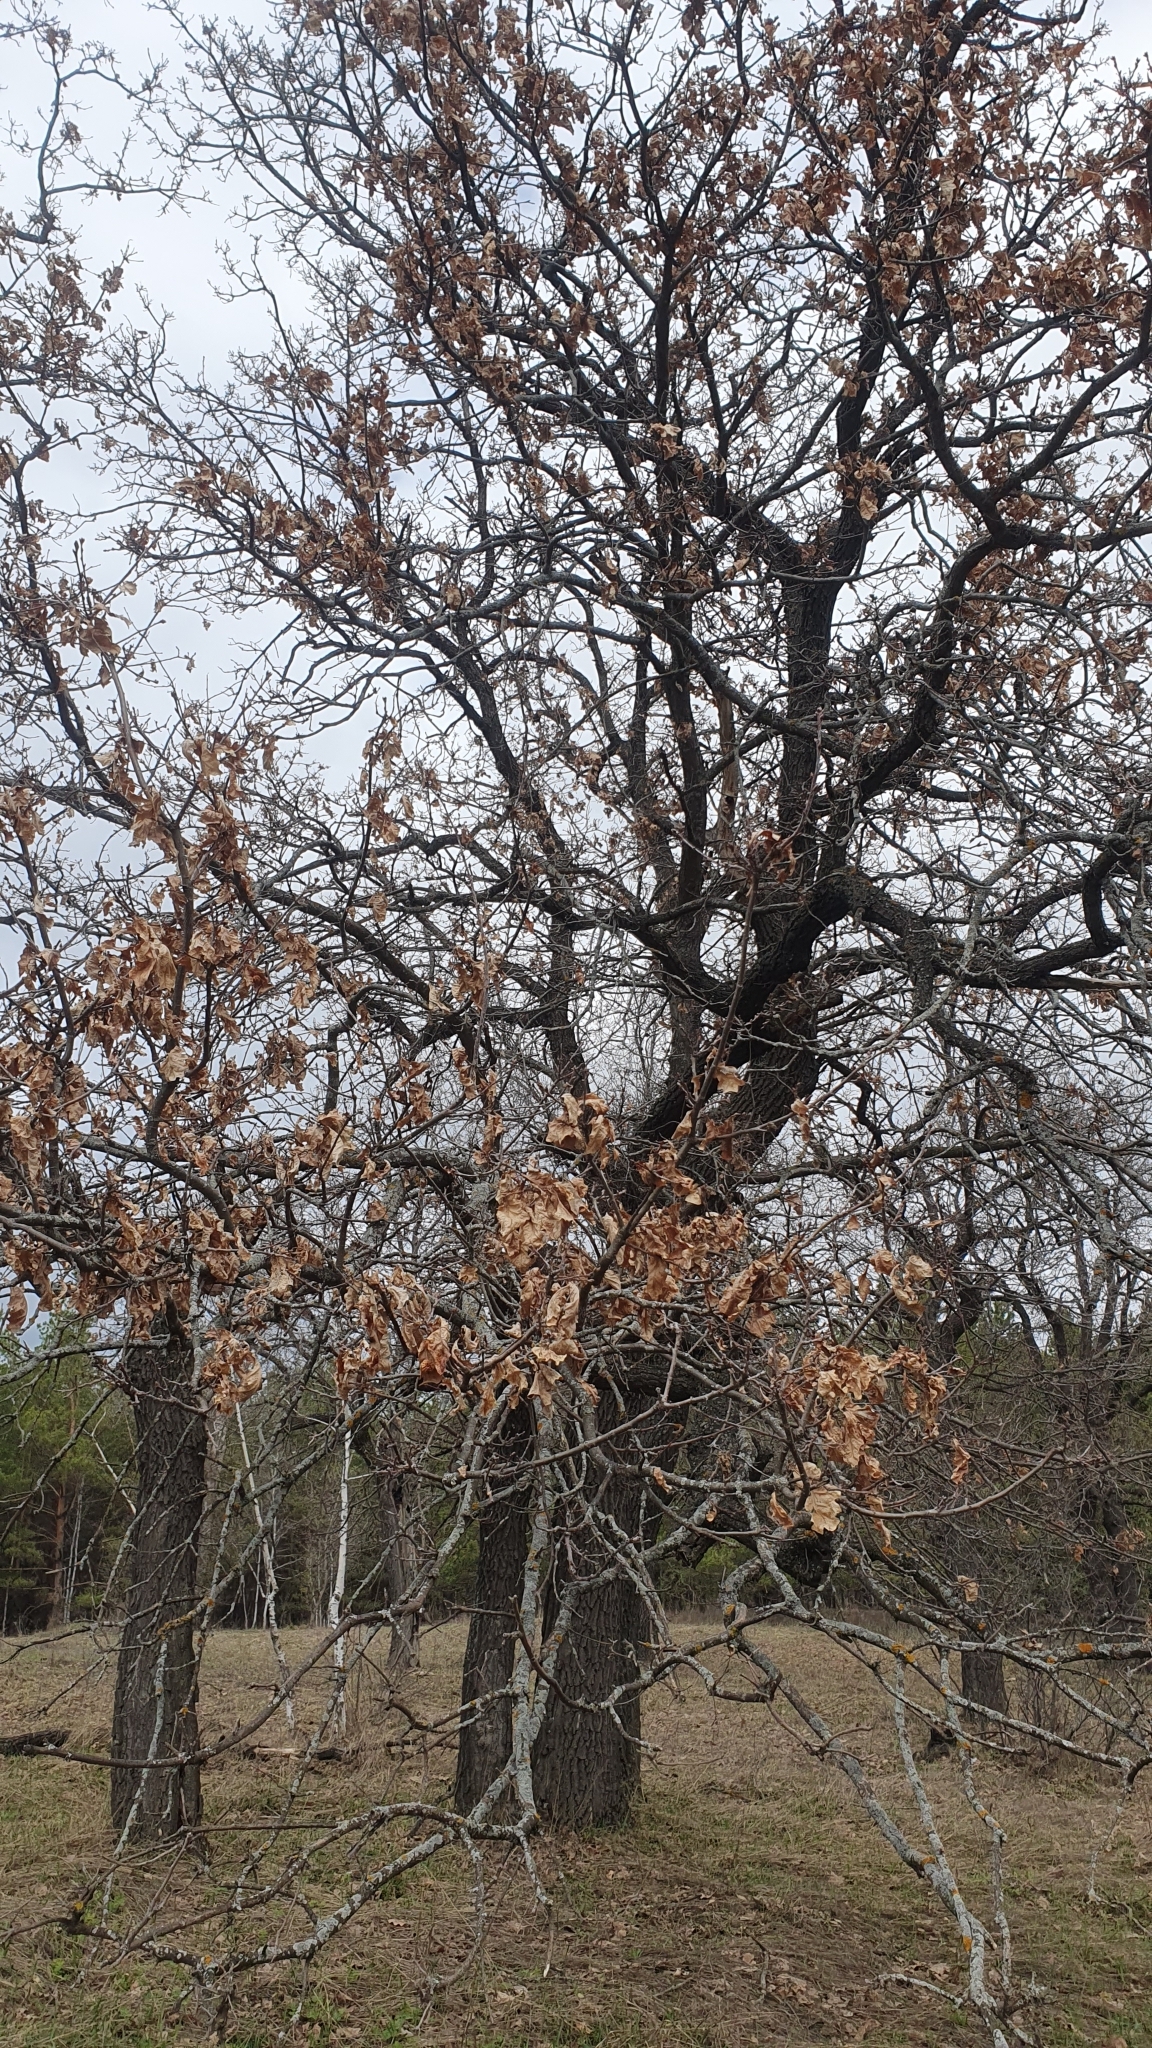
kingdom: Plantae
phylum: Tracheophyta
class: Magnoliopsida
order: Fagales
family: Fagaceae
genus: Quercus
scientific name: Quercus robur
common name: Pedunculate oak
